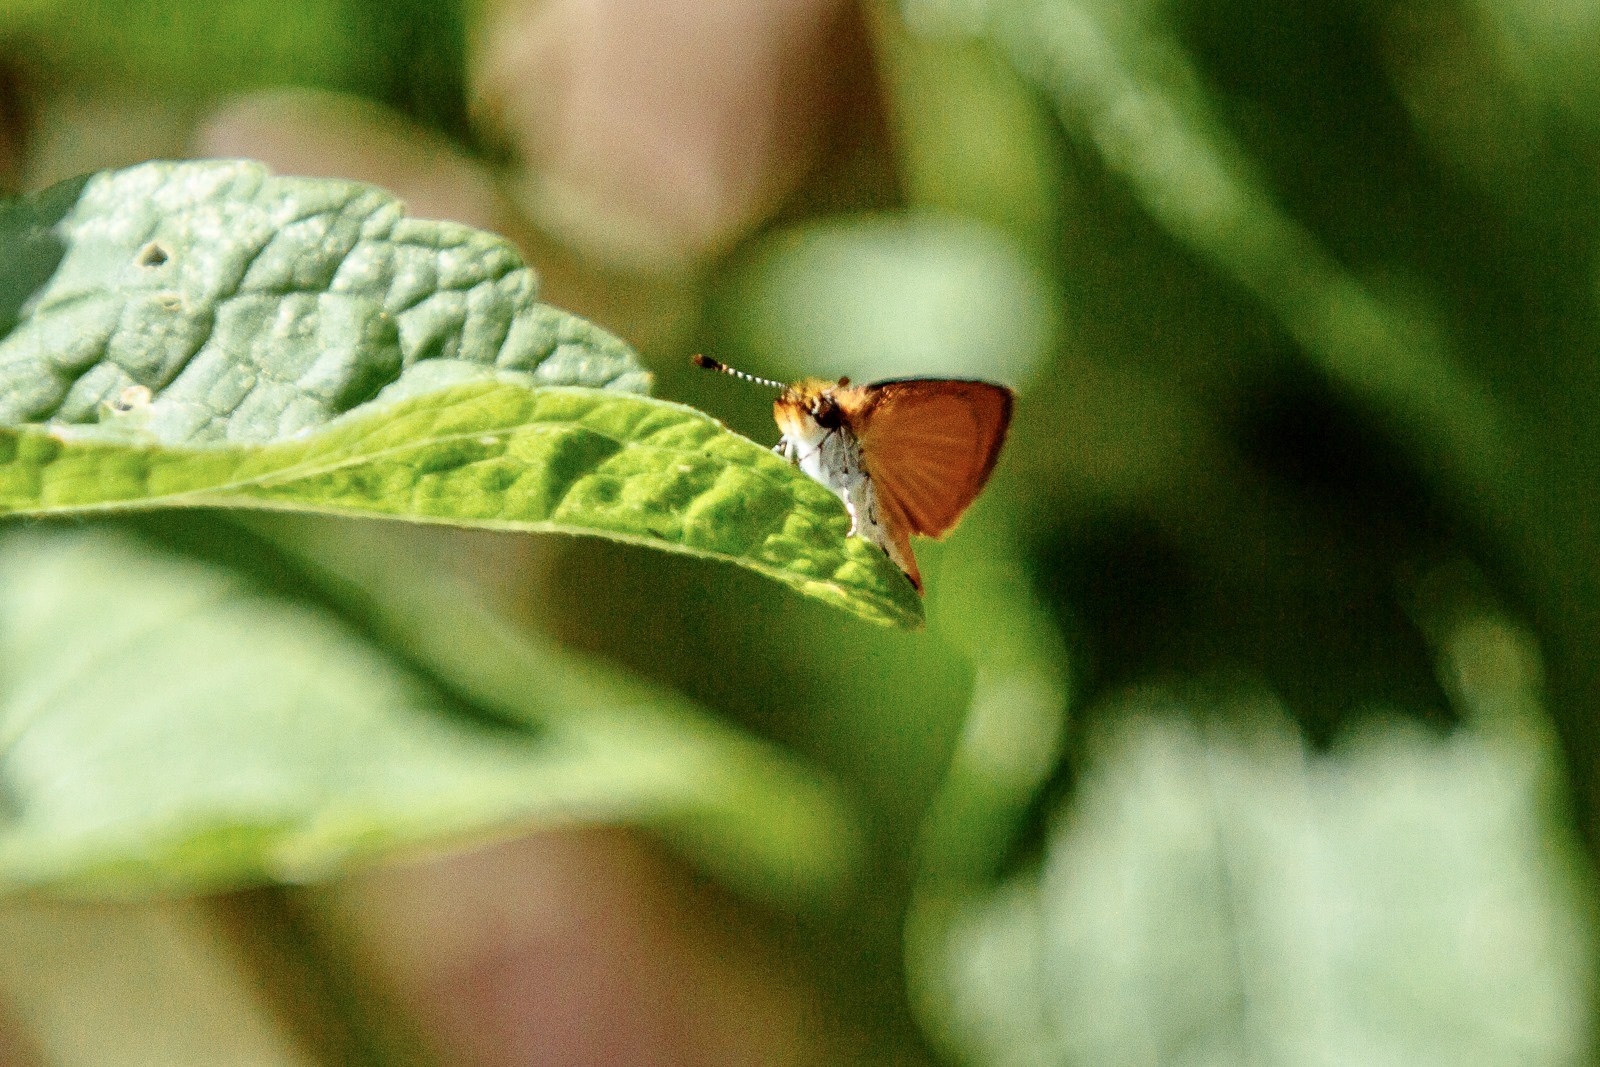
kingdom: Animalia
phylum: Arthropoda
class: Insecta
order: Lepidoptera
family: Hesperiidae
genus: Ancyloxypha
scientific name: Ancyloxypha numitor
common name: Least skipper
